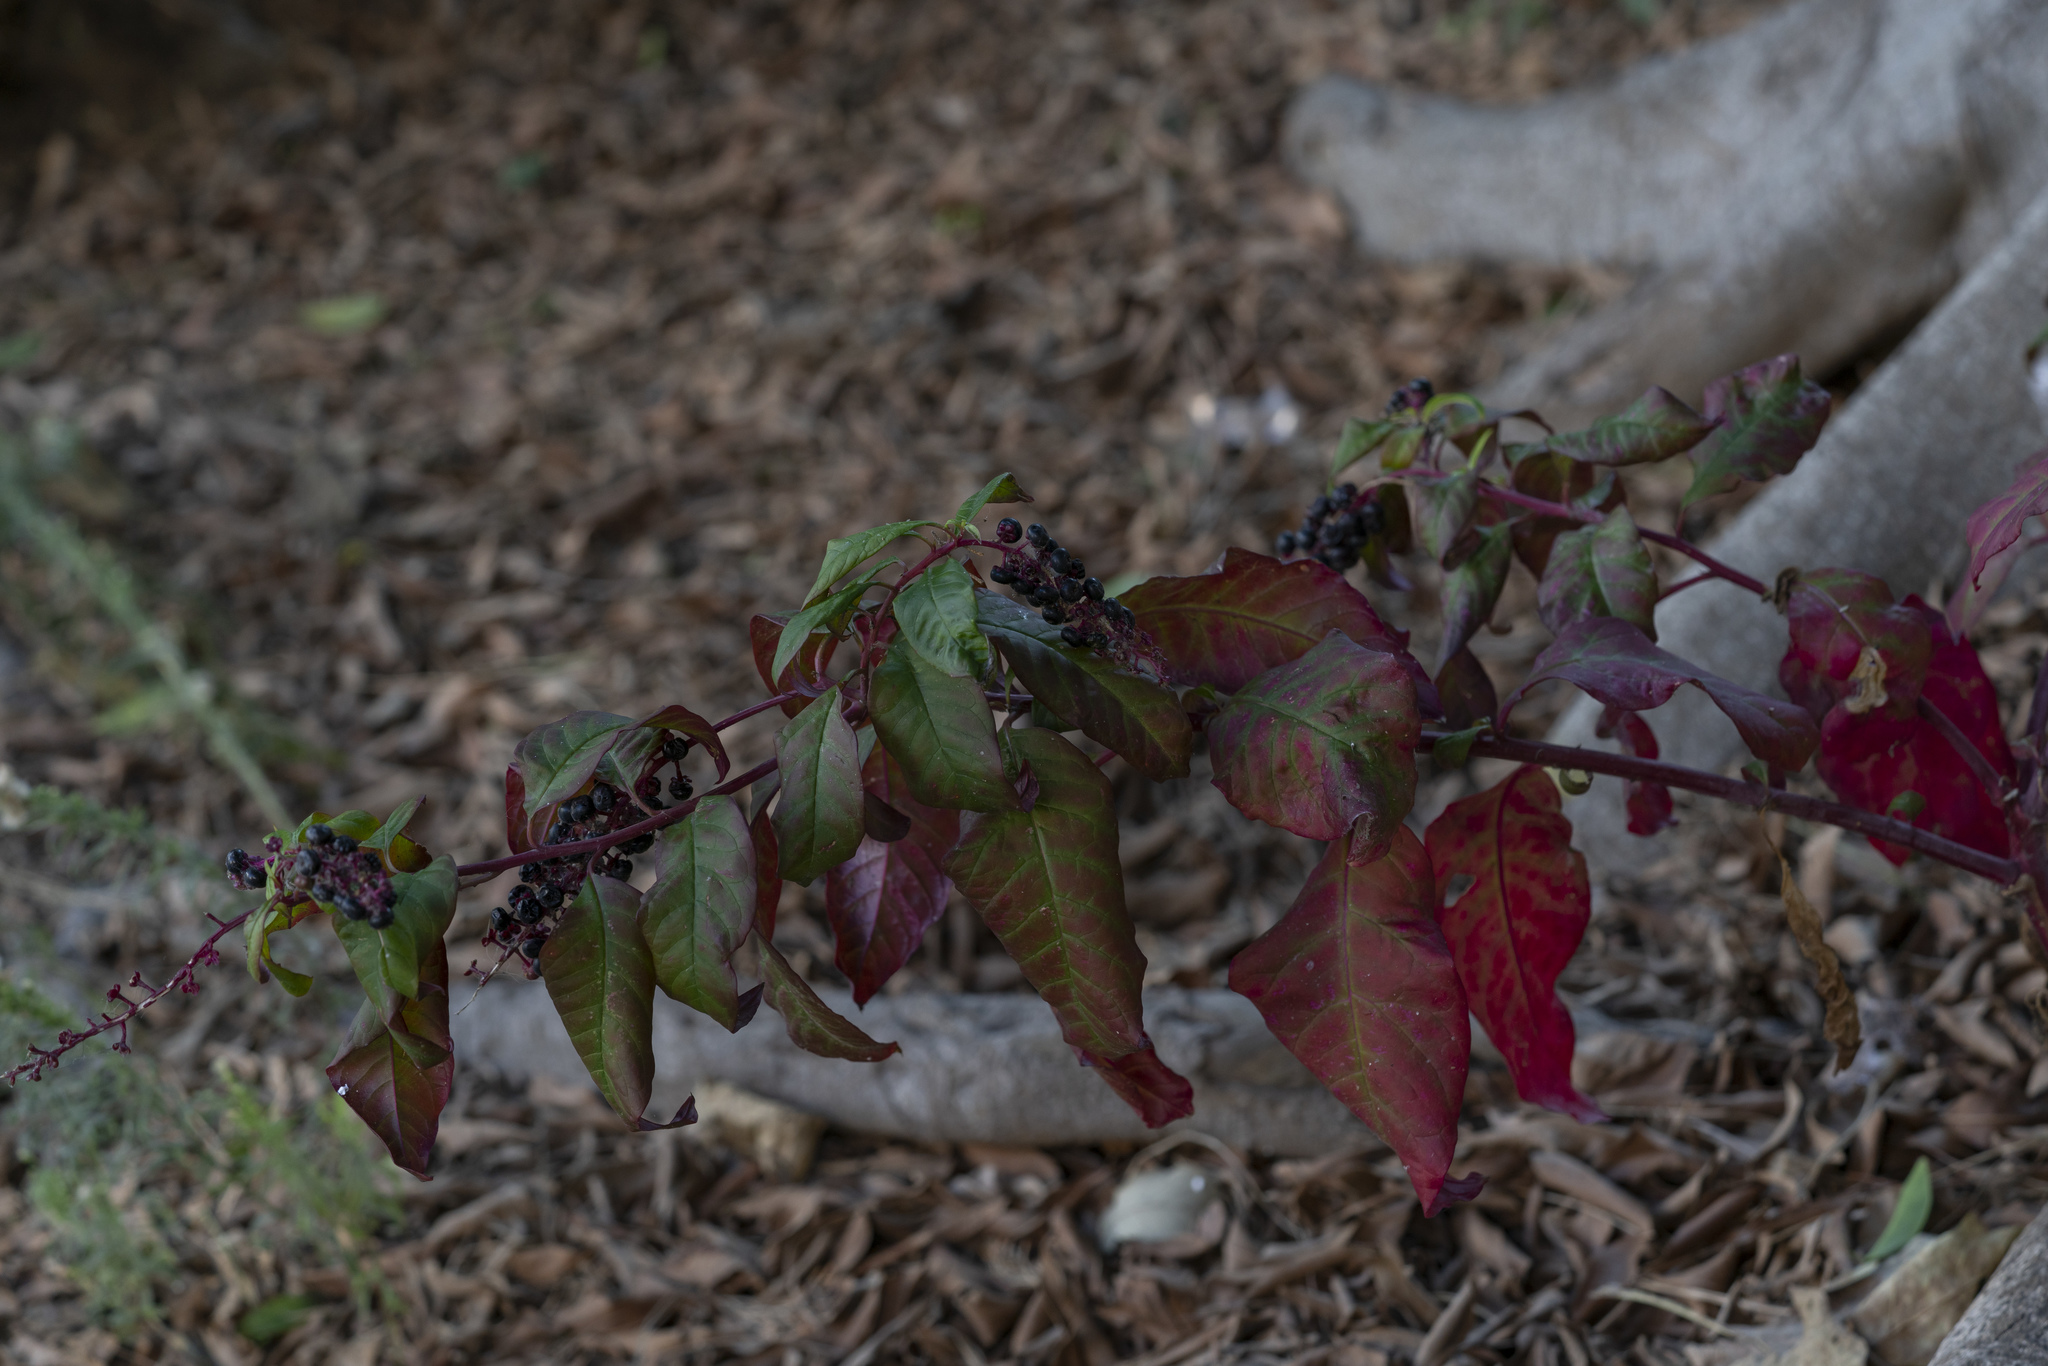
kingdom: Plantae
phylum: Tracheophyta
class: Magnoliopsida
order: Caryophyllales
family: Phytolaccaceae
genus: Phytolacca
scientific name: Phytolacca americana
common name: American pokeweed
